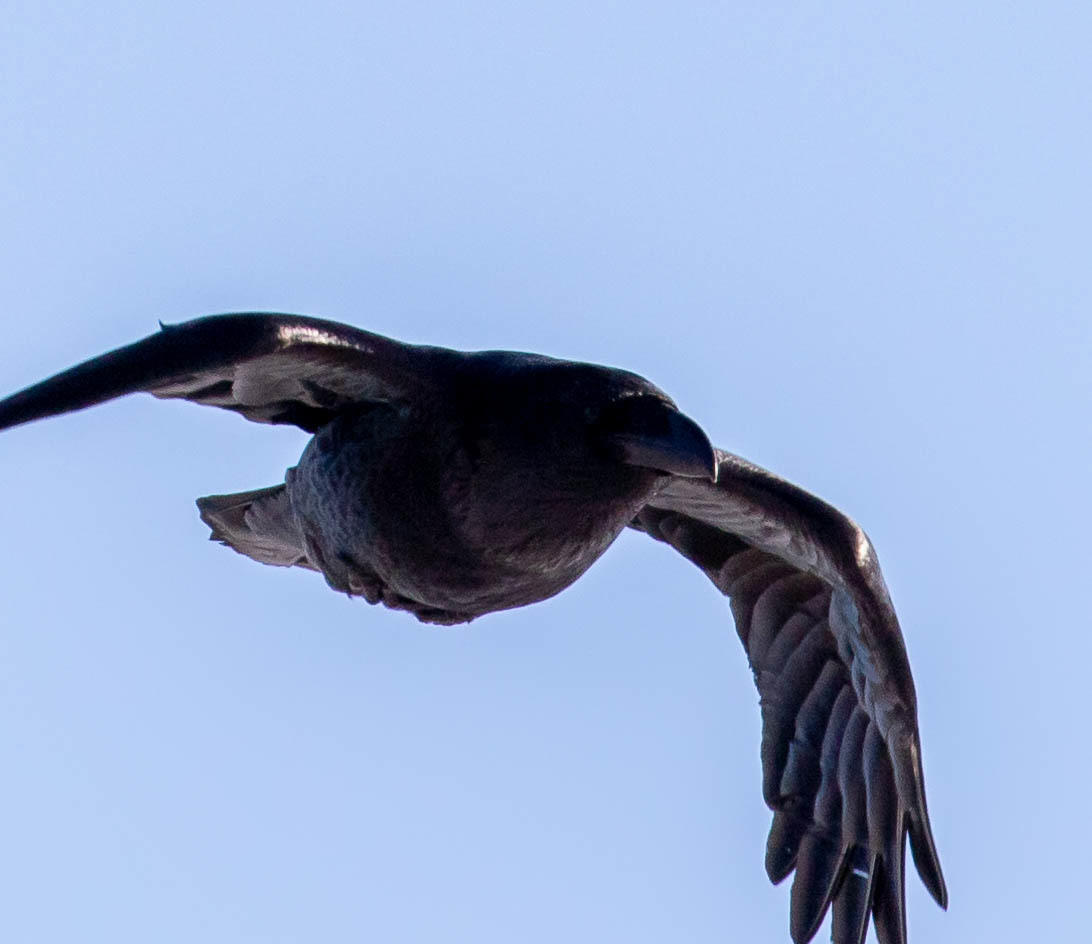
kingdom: Animalia
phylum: Chordata
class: Aves
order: Passeriformes
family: Corvidae
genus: Corvus
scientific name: Corvus corax
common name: Common raven
